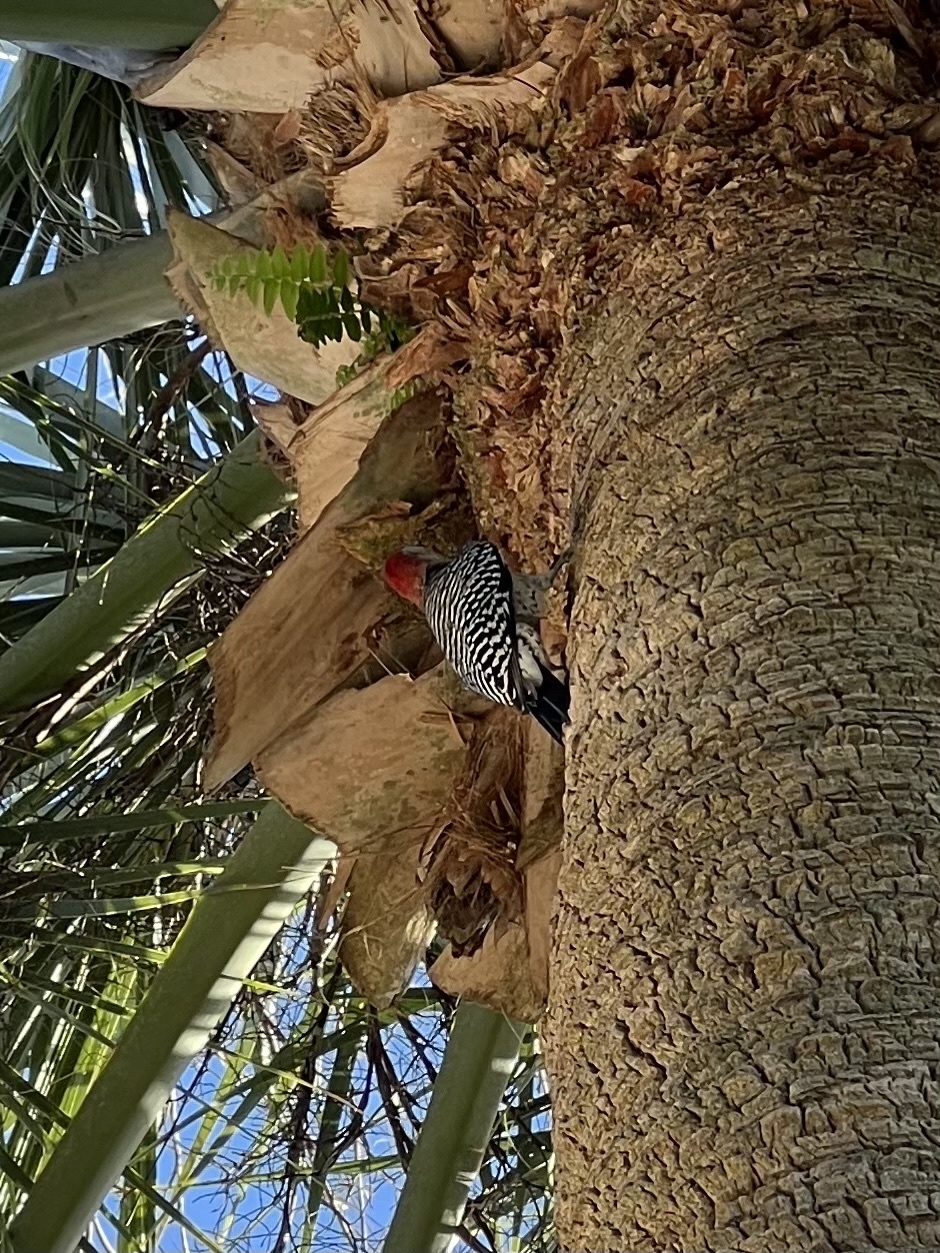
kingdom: Animalia
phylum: Chordata
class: Aves
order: Piciformes
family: Picidae
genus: Melanerpes
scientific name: Melanerpes carolinus
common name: Red-bellied woodpecker
